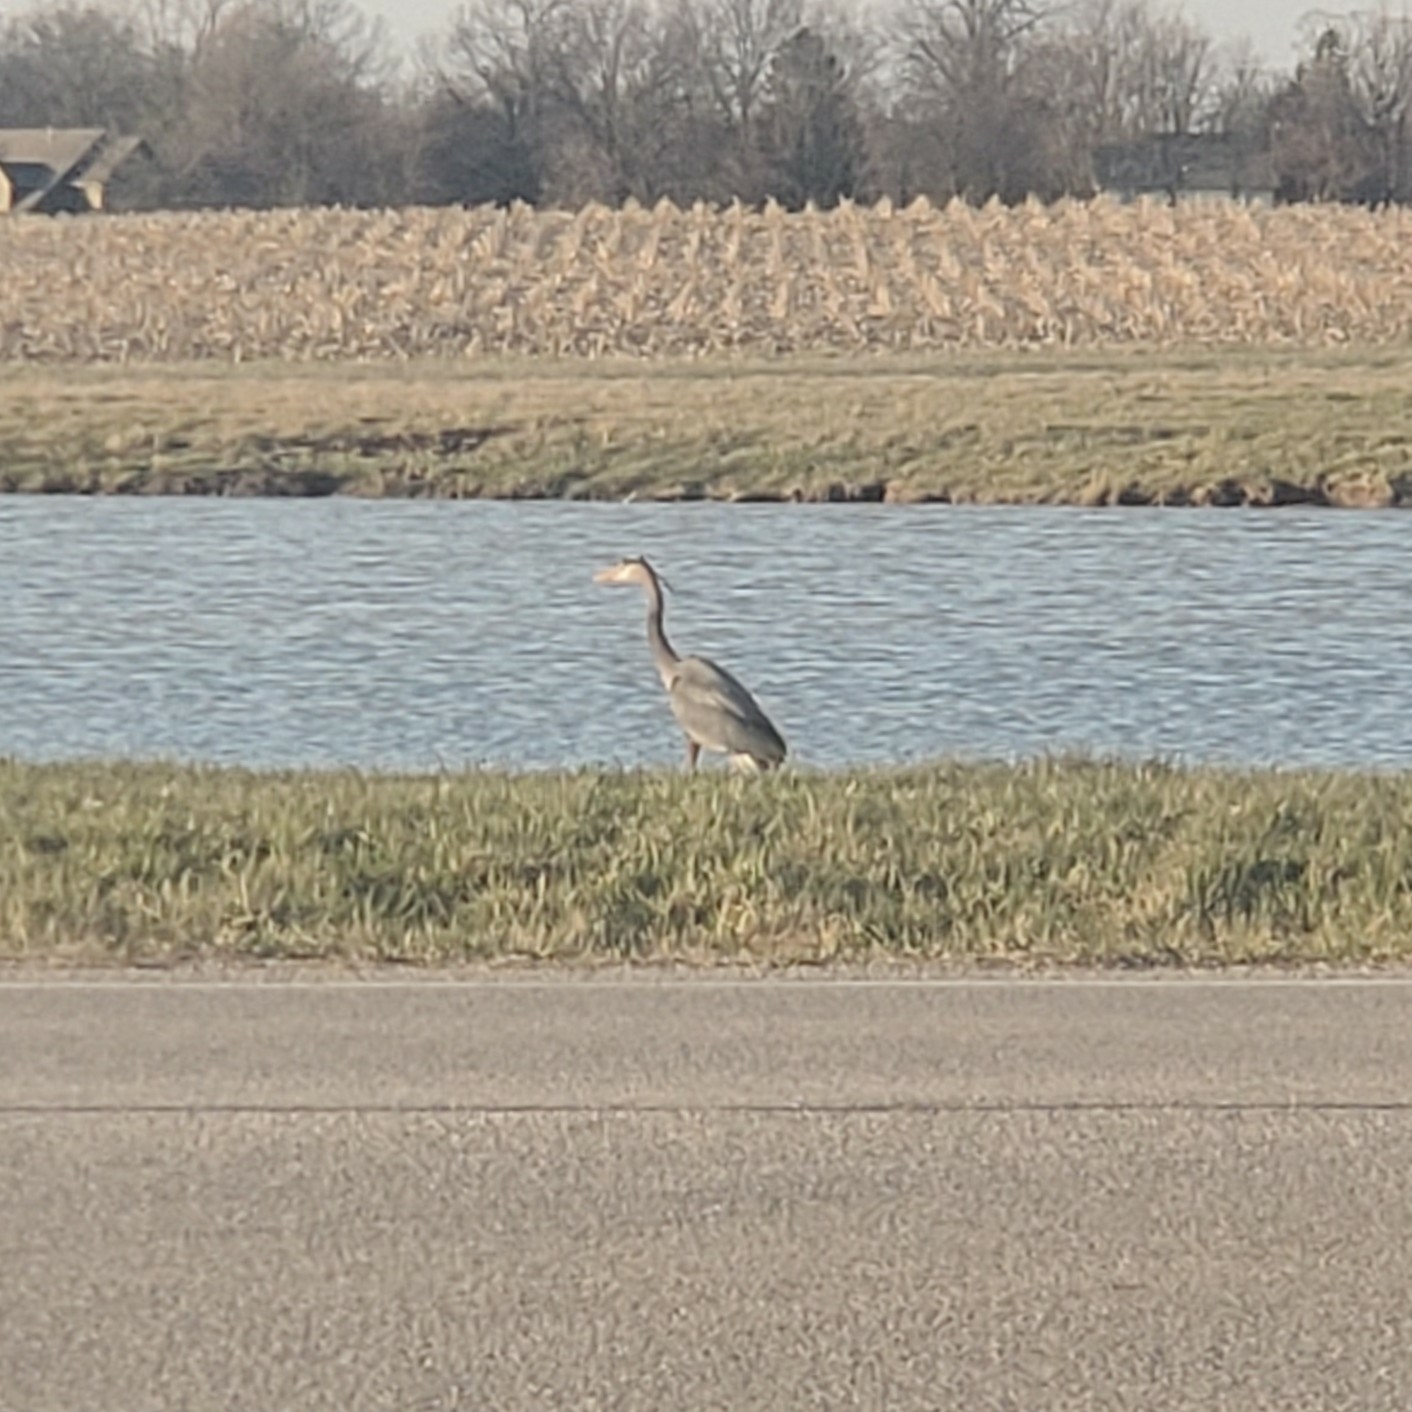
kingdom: Animalia
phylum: Chordata
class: Aves
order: Pelecaniformes
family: Ardeidae
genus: Ardea
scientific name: Ardea herodias
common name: Great blue heron
